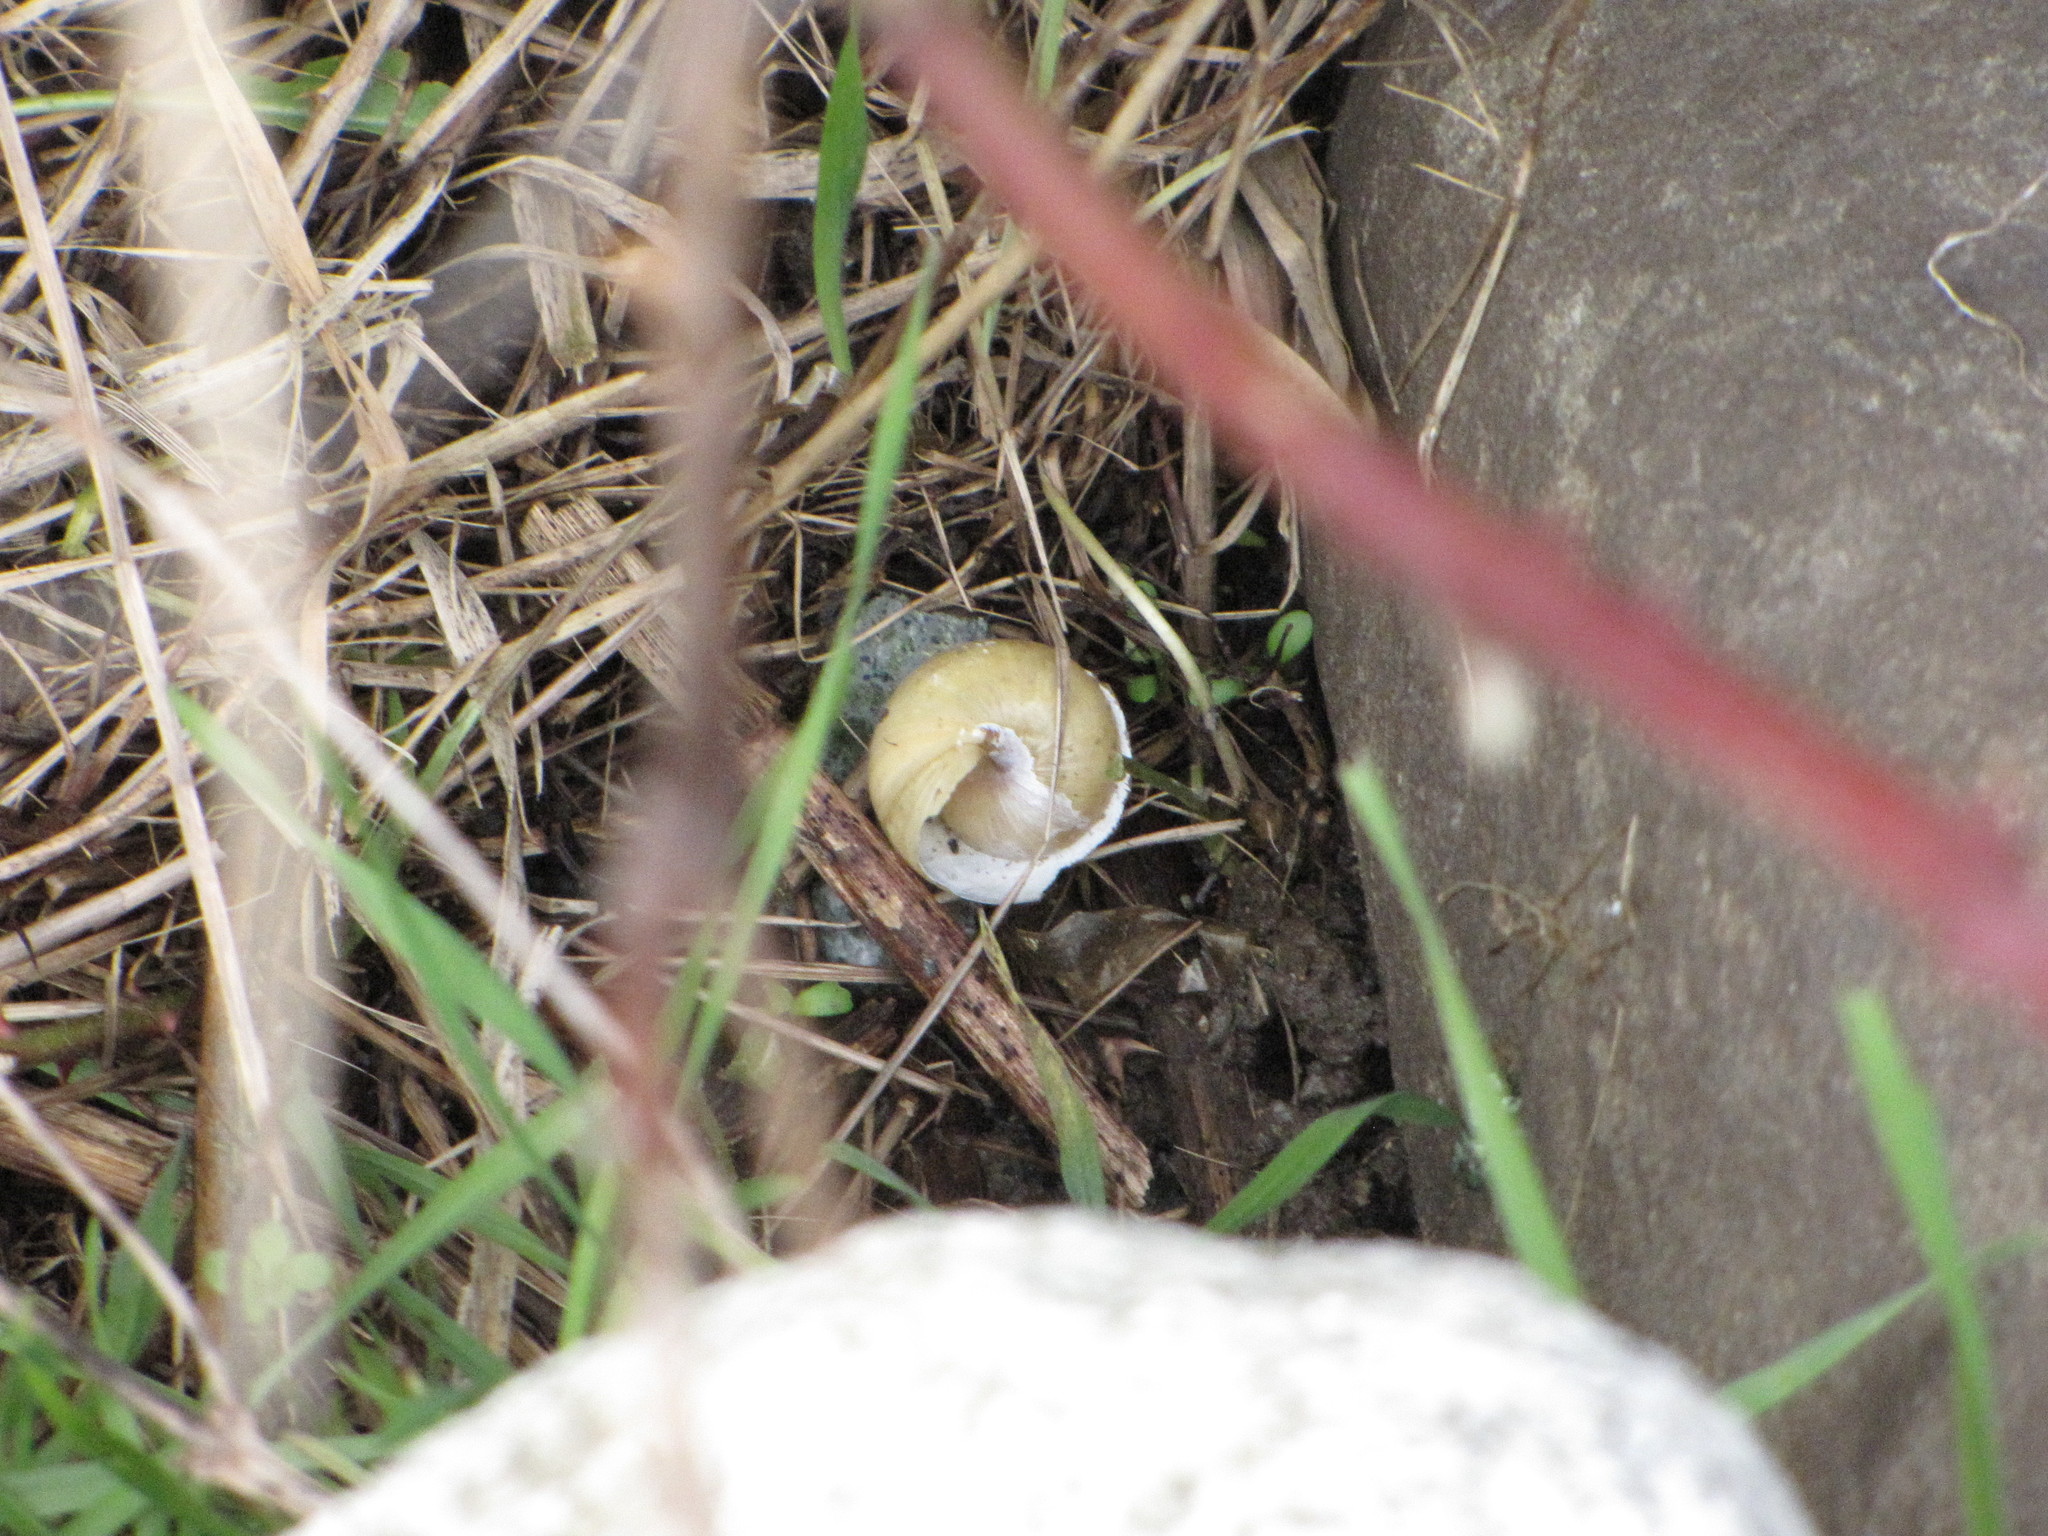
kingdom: Animalia
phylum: Mollusca
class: Gastropoda
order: Stylommatophora
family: Xanthonychidae
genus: Monadenia
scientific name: Monadenia fidelis
